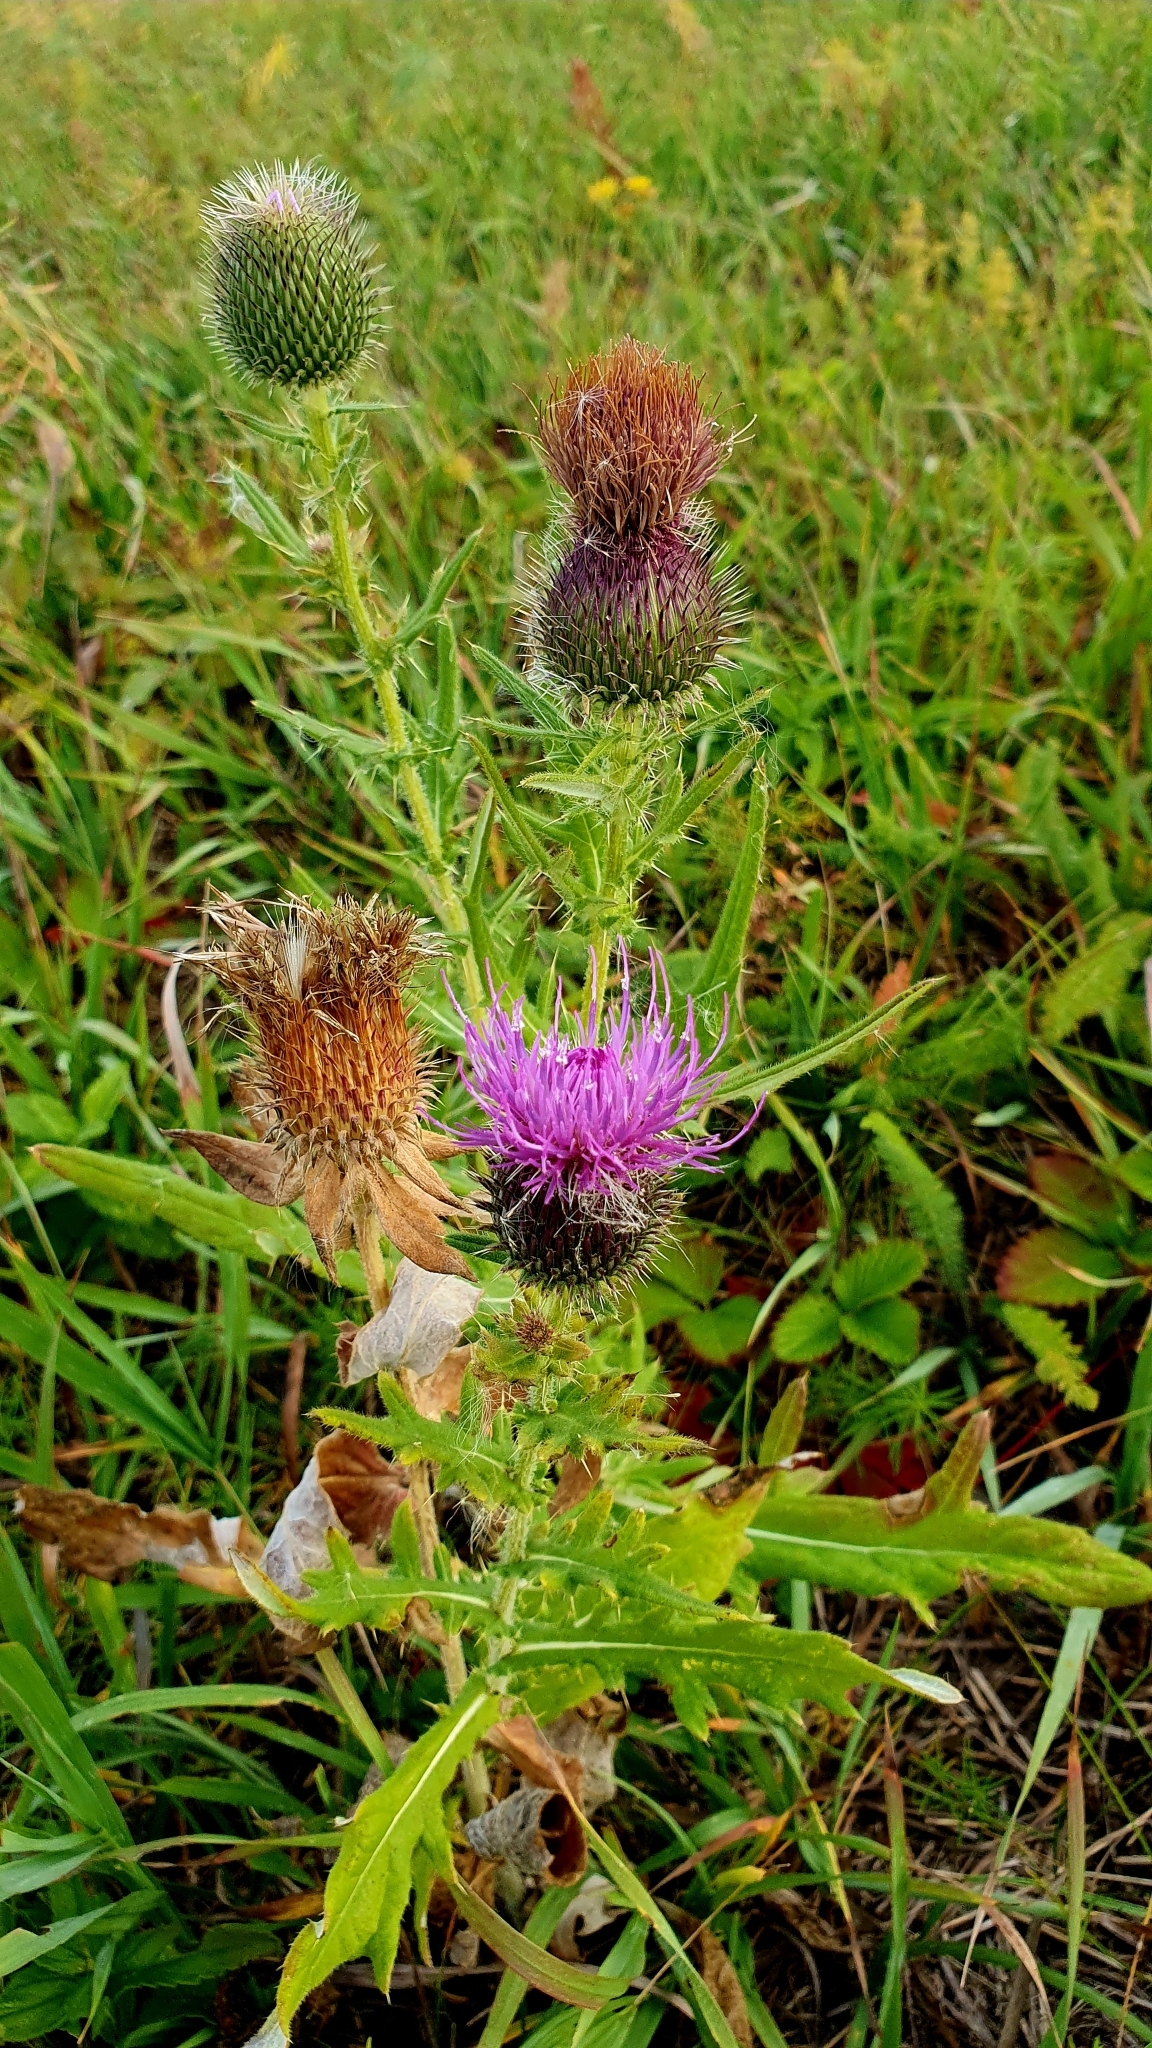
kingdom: Plantae
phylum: Tracheophyta
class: Magnoliopsida
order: Asterales
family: Asteraceae
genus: Cirsium
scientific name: Cirsium serrulatum
